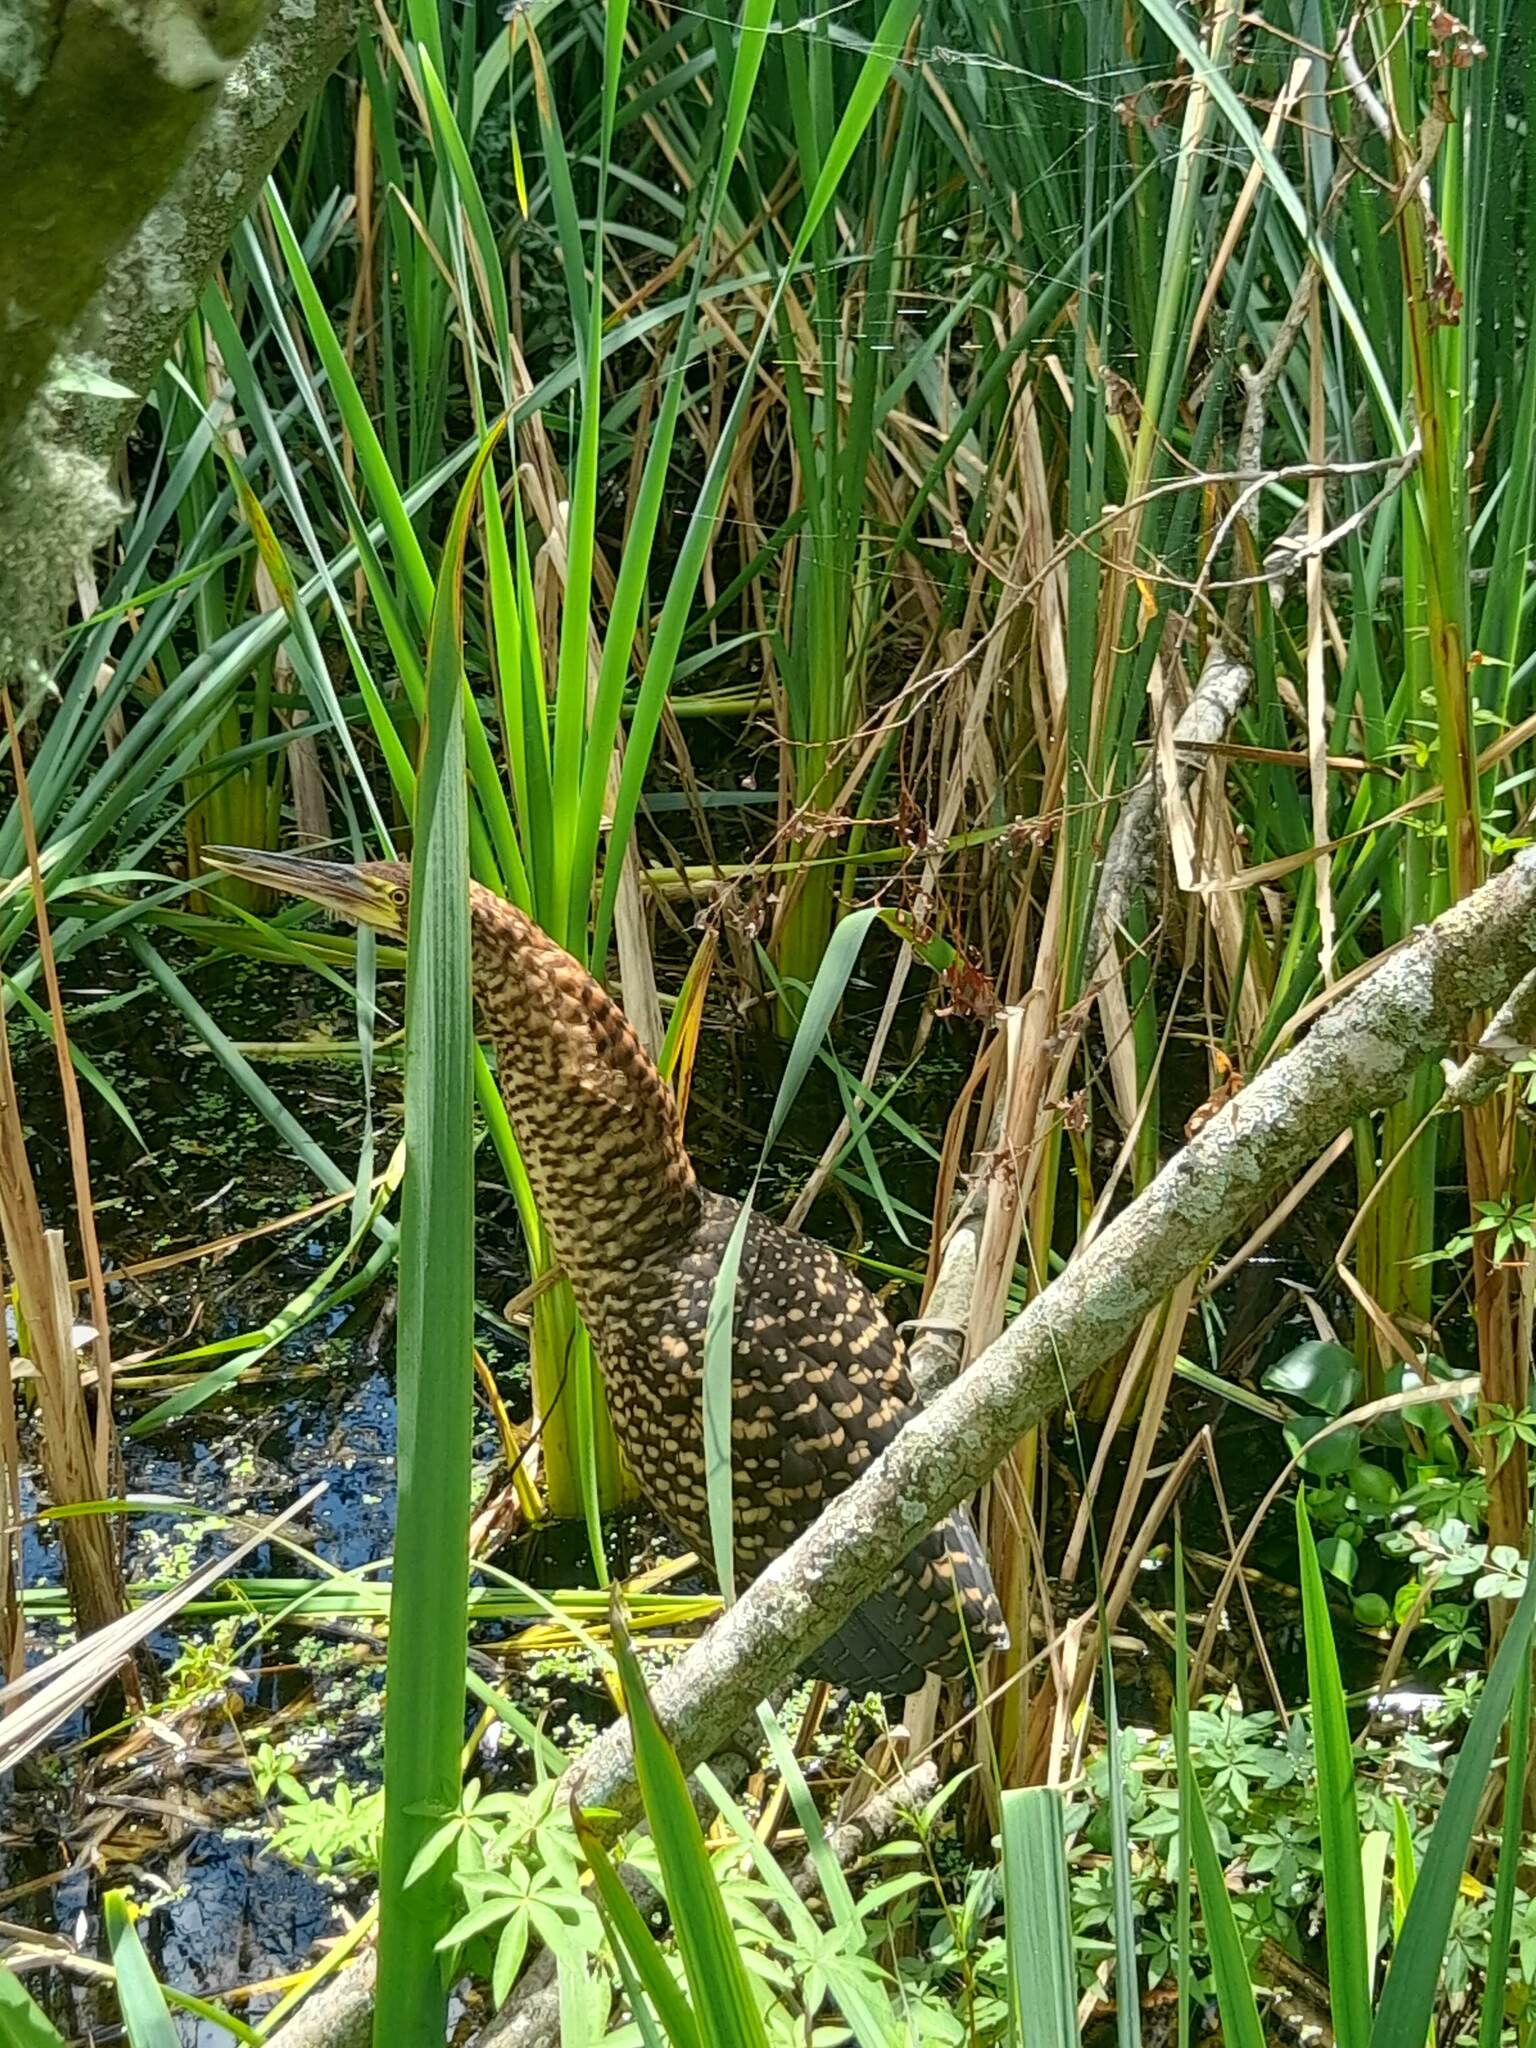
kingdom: Animalia
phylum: Chordata
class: Aves
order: Pelecaniformes
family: Ardeidae
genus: Tigrisoma
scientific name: Tigrisoma lineatum
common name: Rufescent tiger-heron
